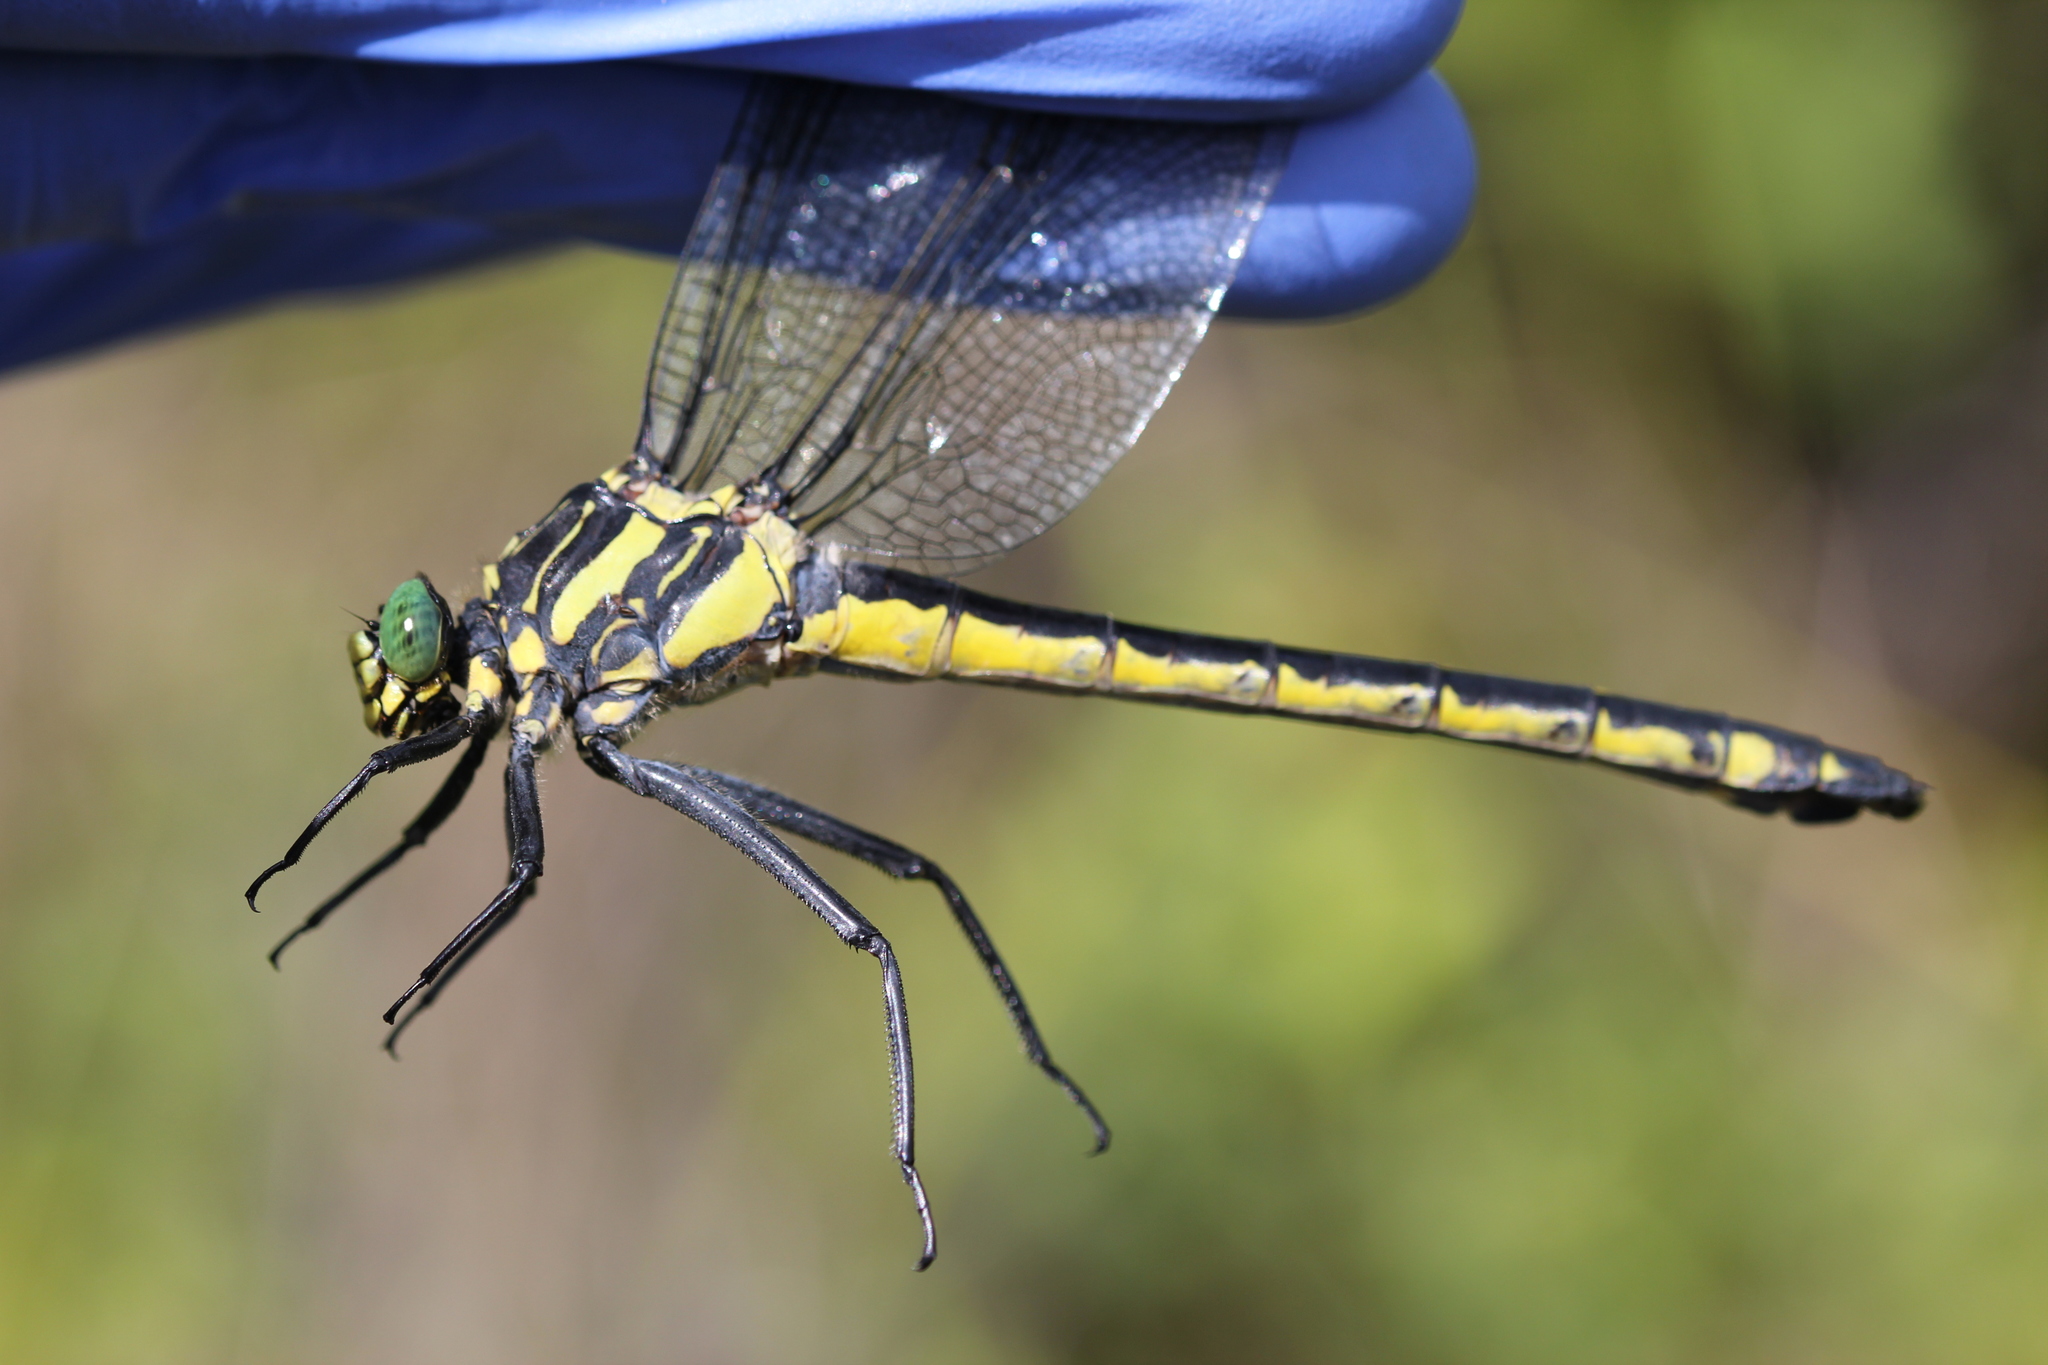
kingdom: Animalia
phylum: Arthropoda
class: Insecta
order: Odonata
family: Gomphidae
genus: Hagenius
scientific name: Hagenius brevistylus
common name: Dragonhunter
